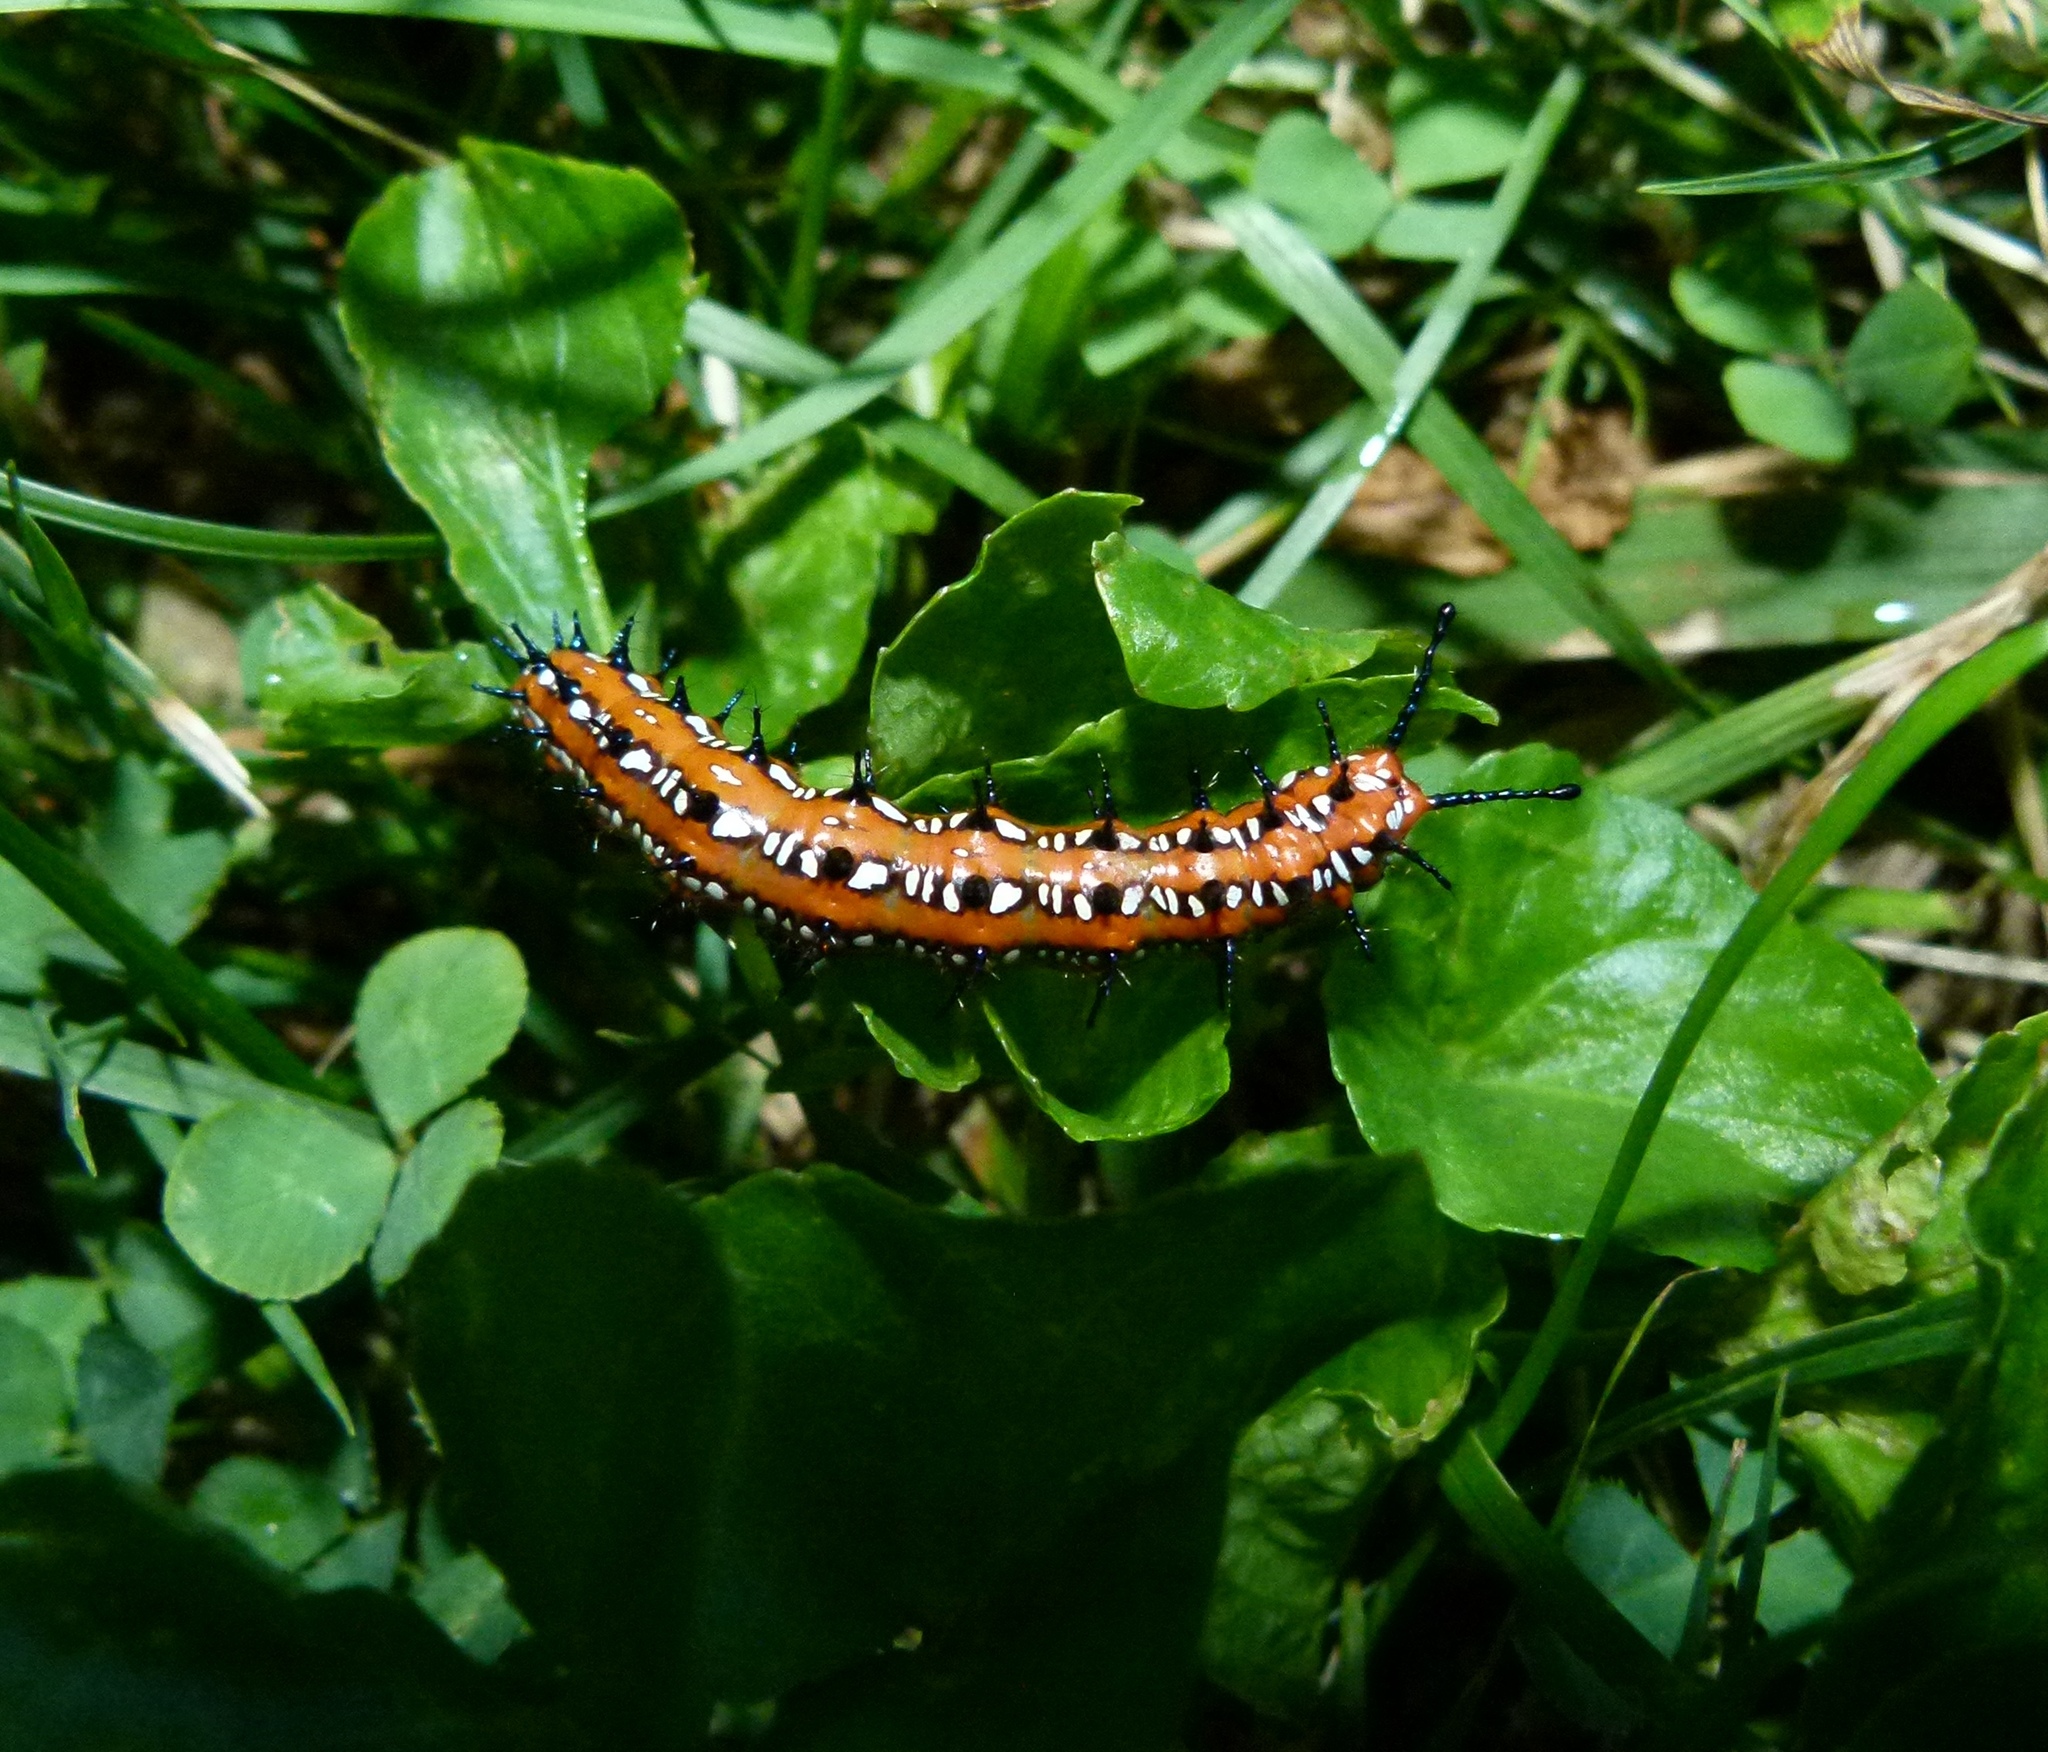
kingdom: Animalia
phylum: Arthropoda
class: Insecta
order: Lepidoptera
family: Nymphalidae
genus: Euptoieta
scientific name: Euptoieta claudia
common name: Variegated fritillary
